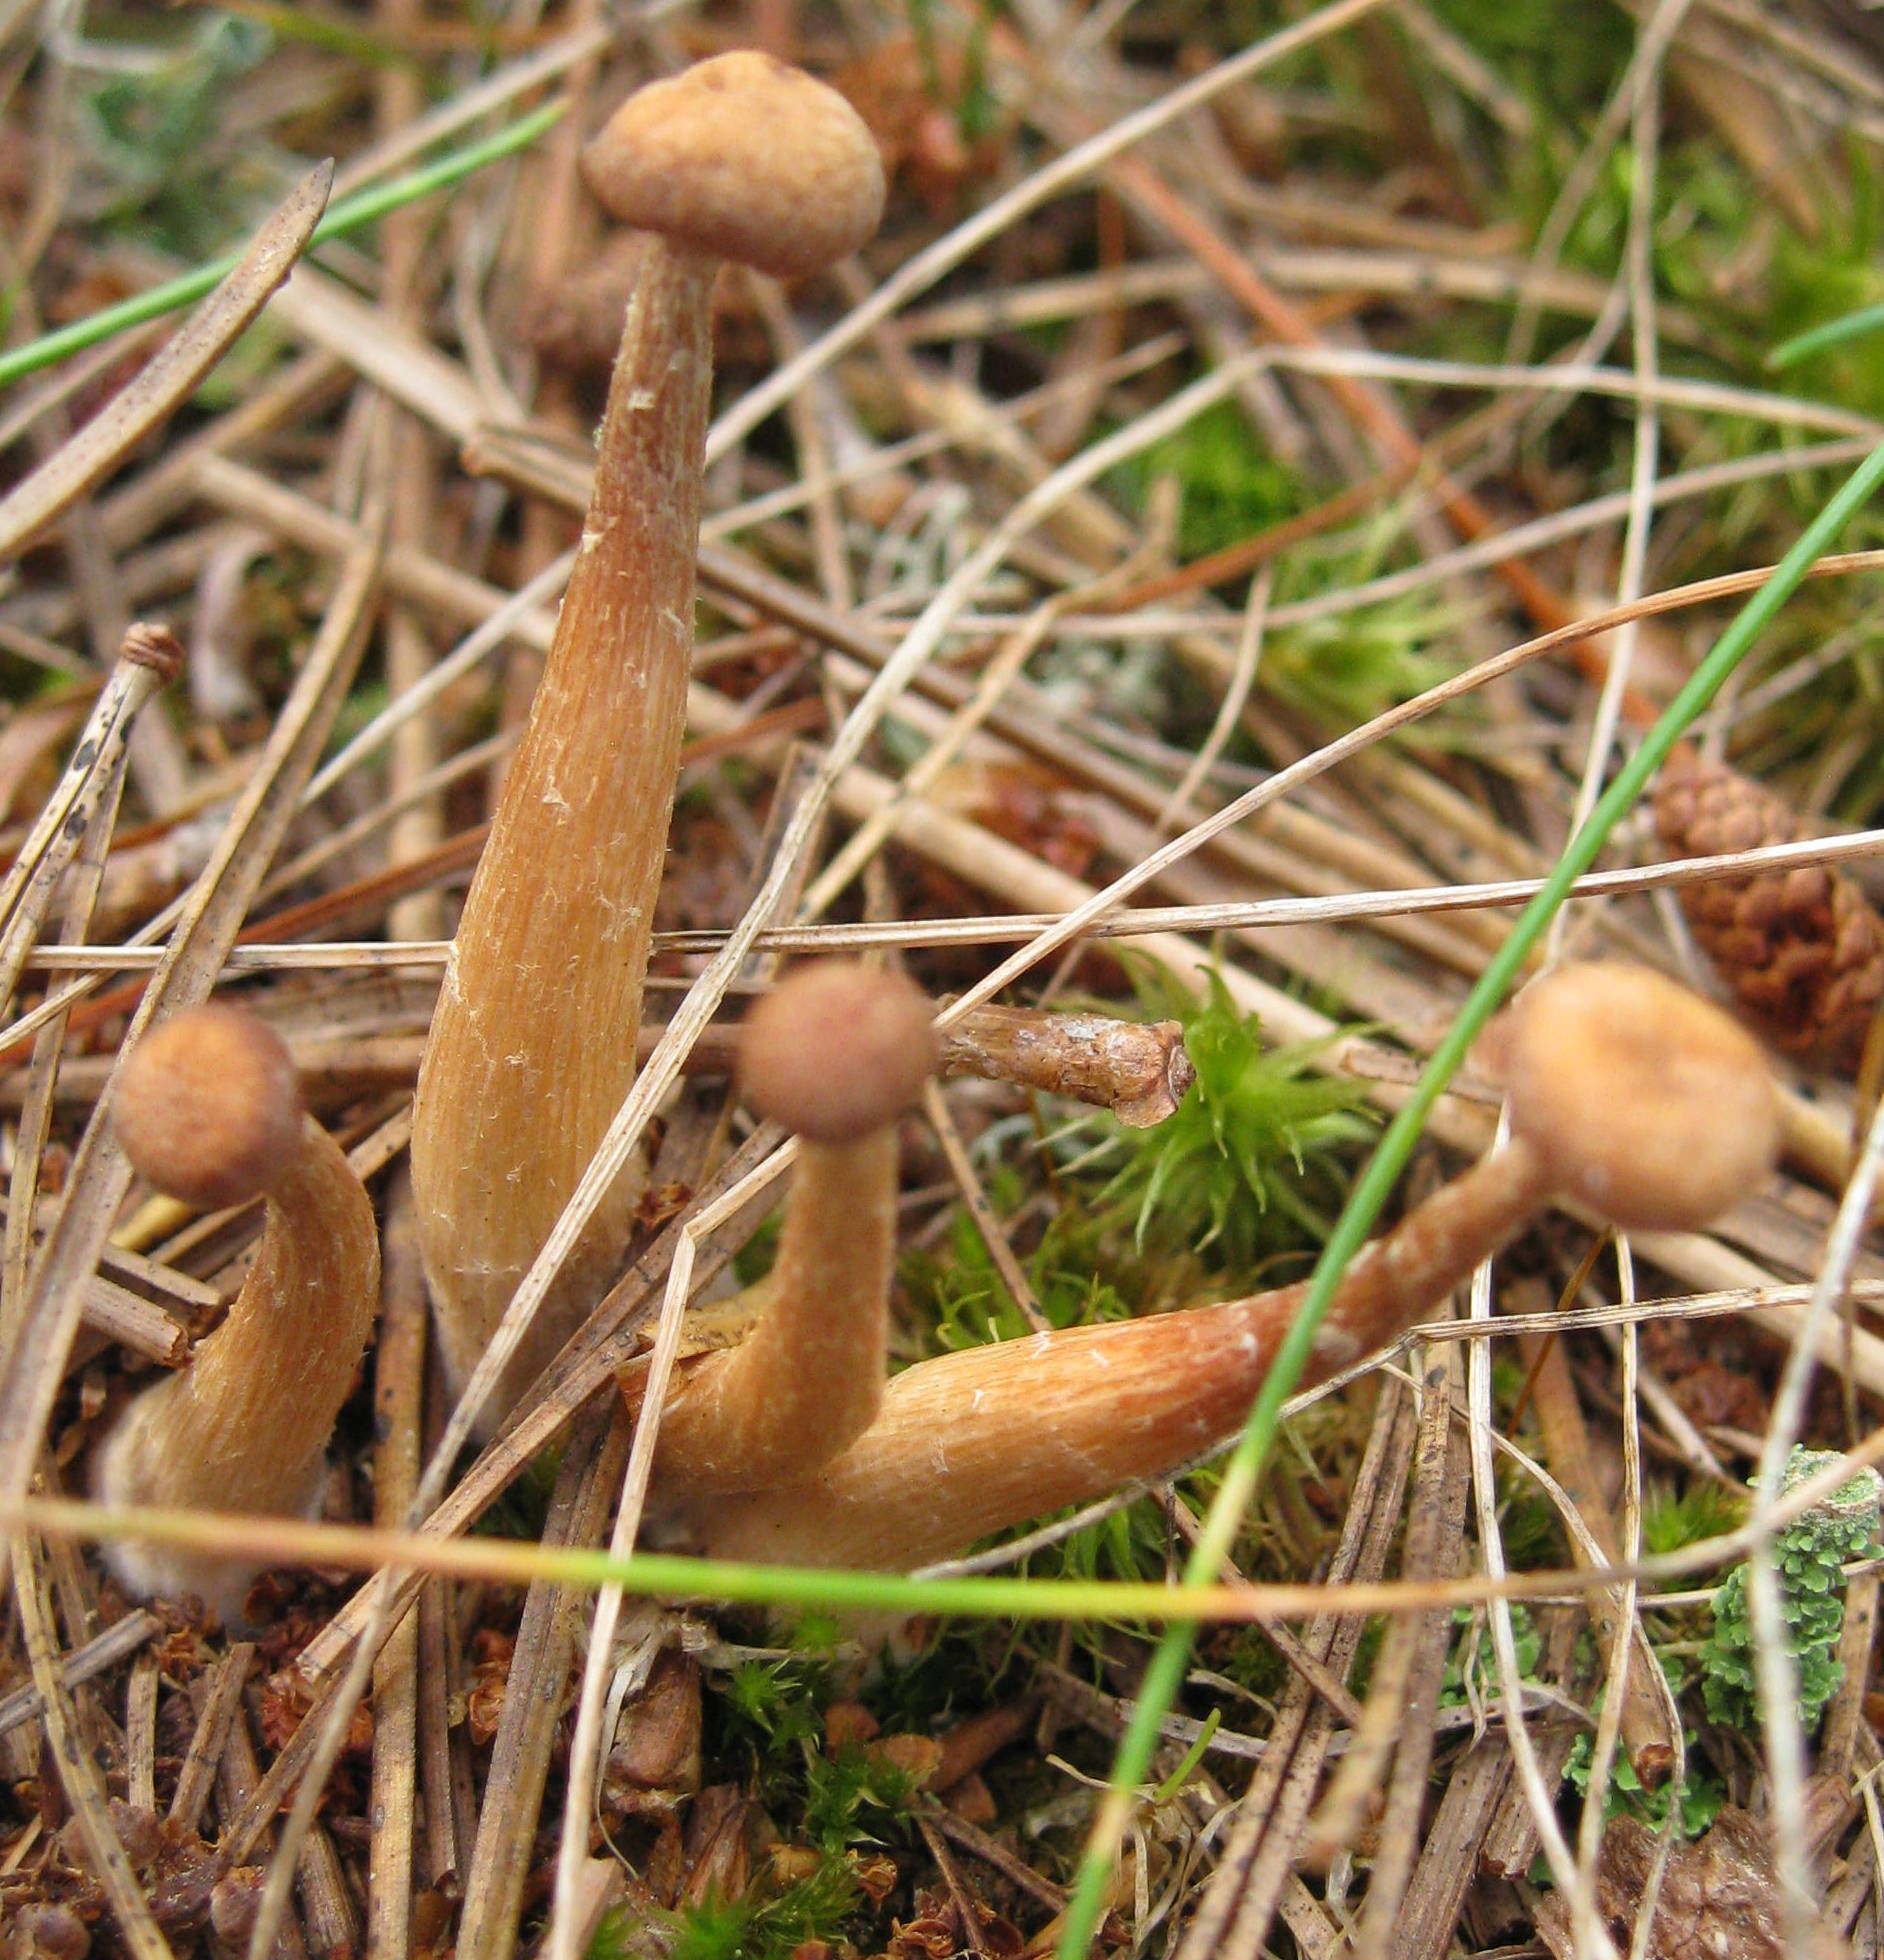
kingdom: Fungi
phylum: Basidiomycota
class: Agaricomycetes
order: Agaricales
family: Hydnangiaceae
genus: Laccaria
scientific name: Laccaria laccata
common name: Deceiver
